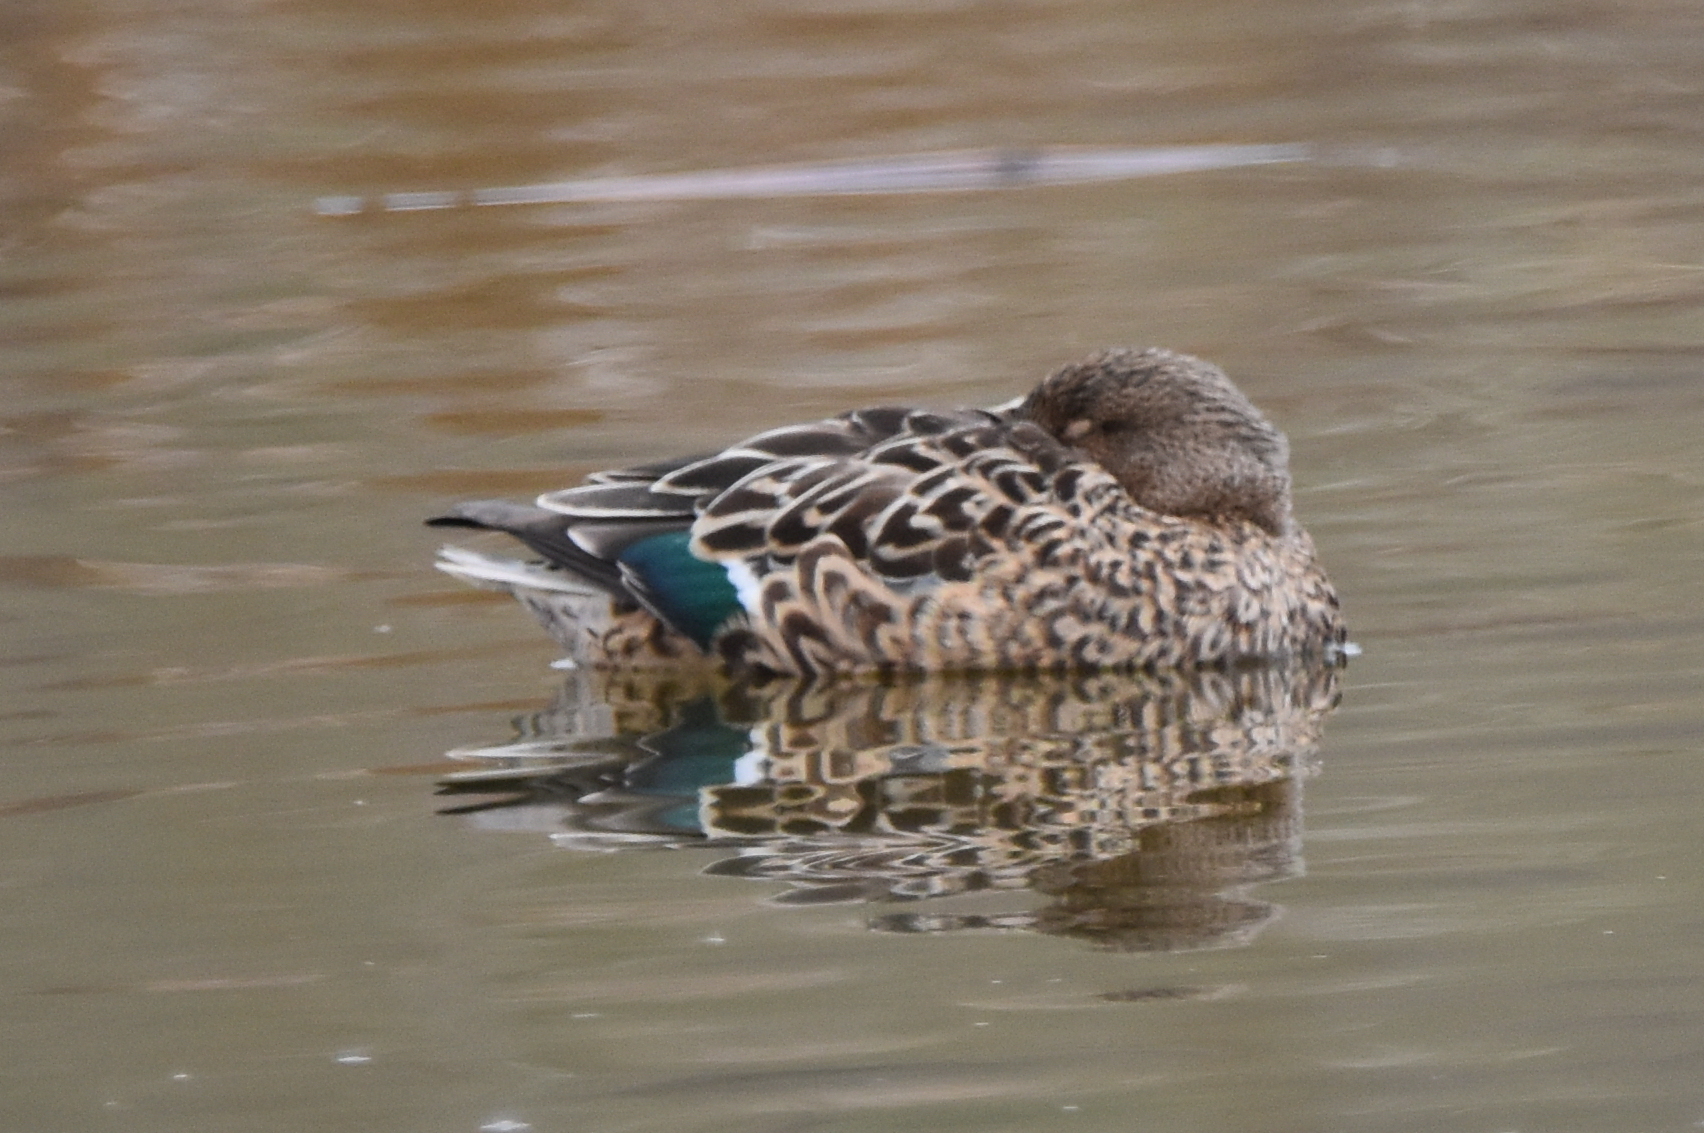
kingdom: Animalia
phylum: Chordata
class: Aves
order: Anseriformes
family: Anatidae
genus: Spatula
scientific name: Spatula clypeata
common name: Northern shoveler
